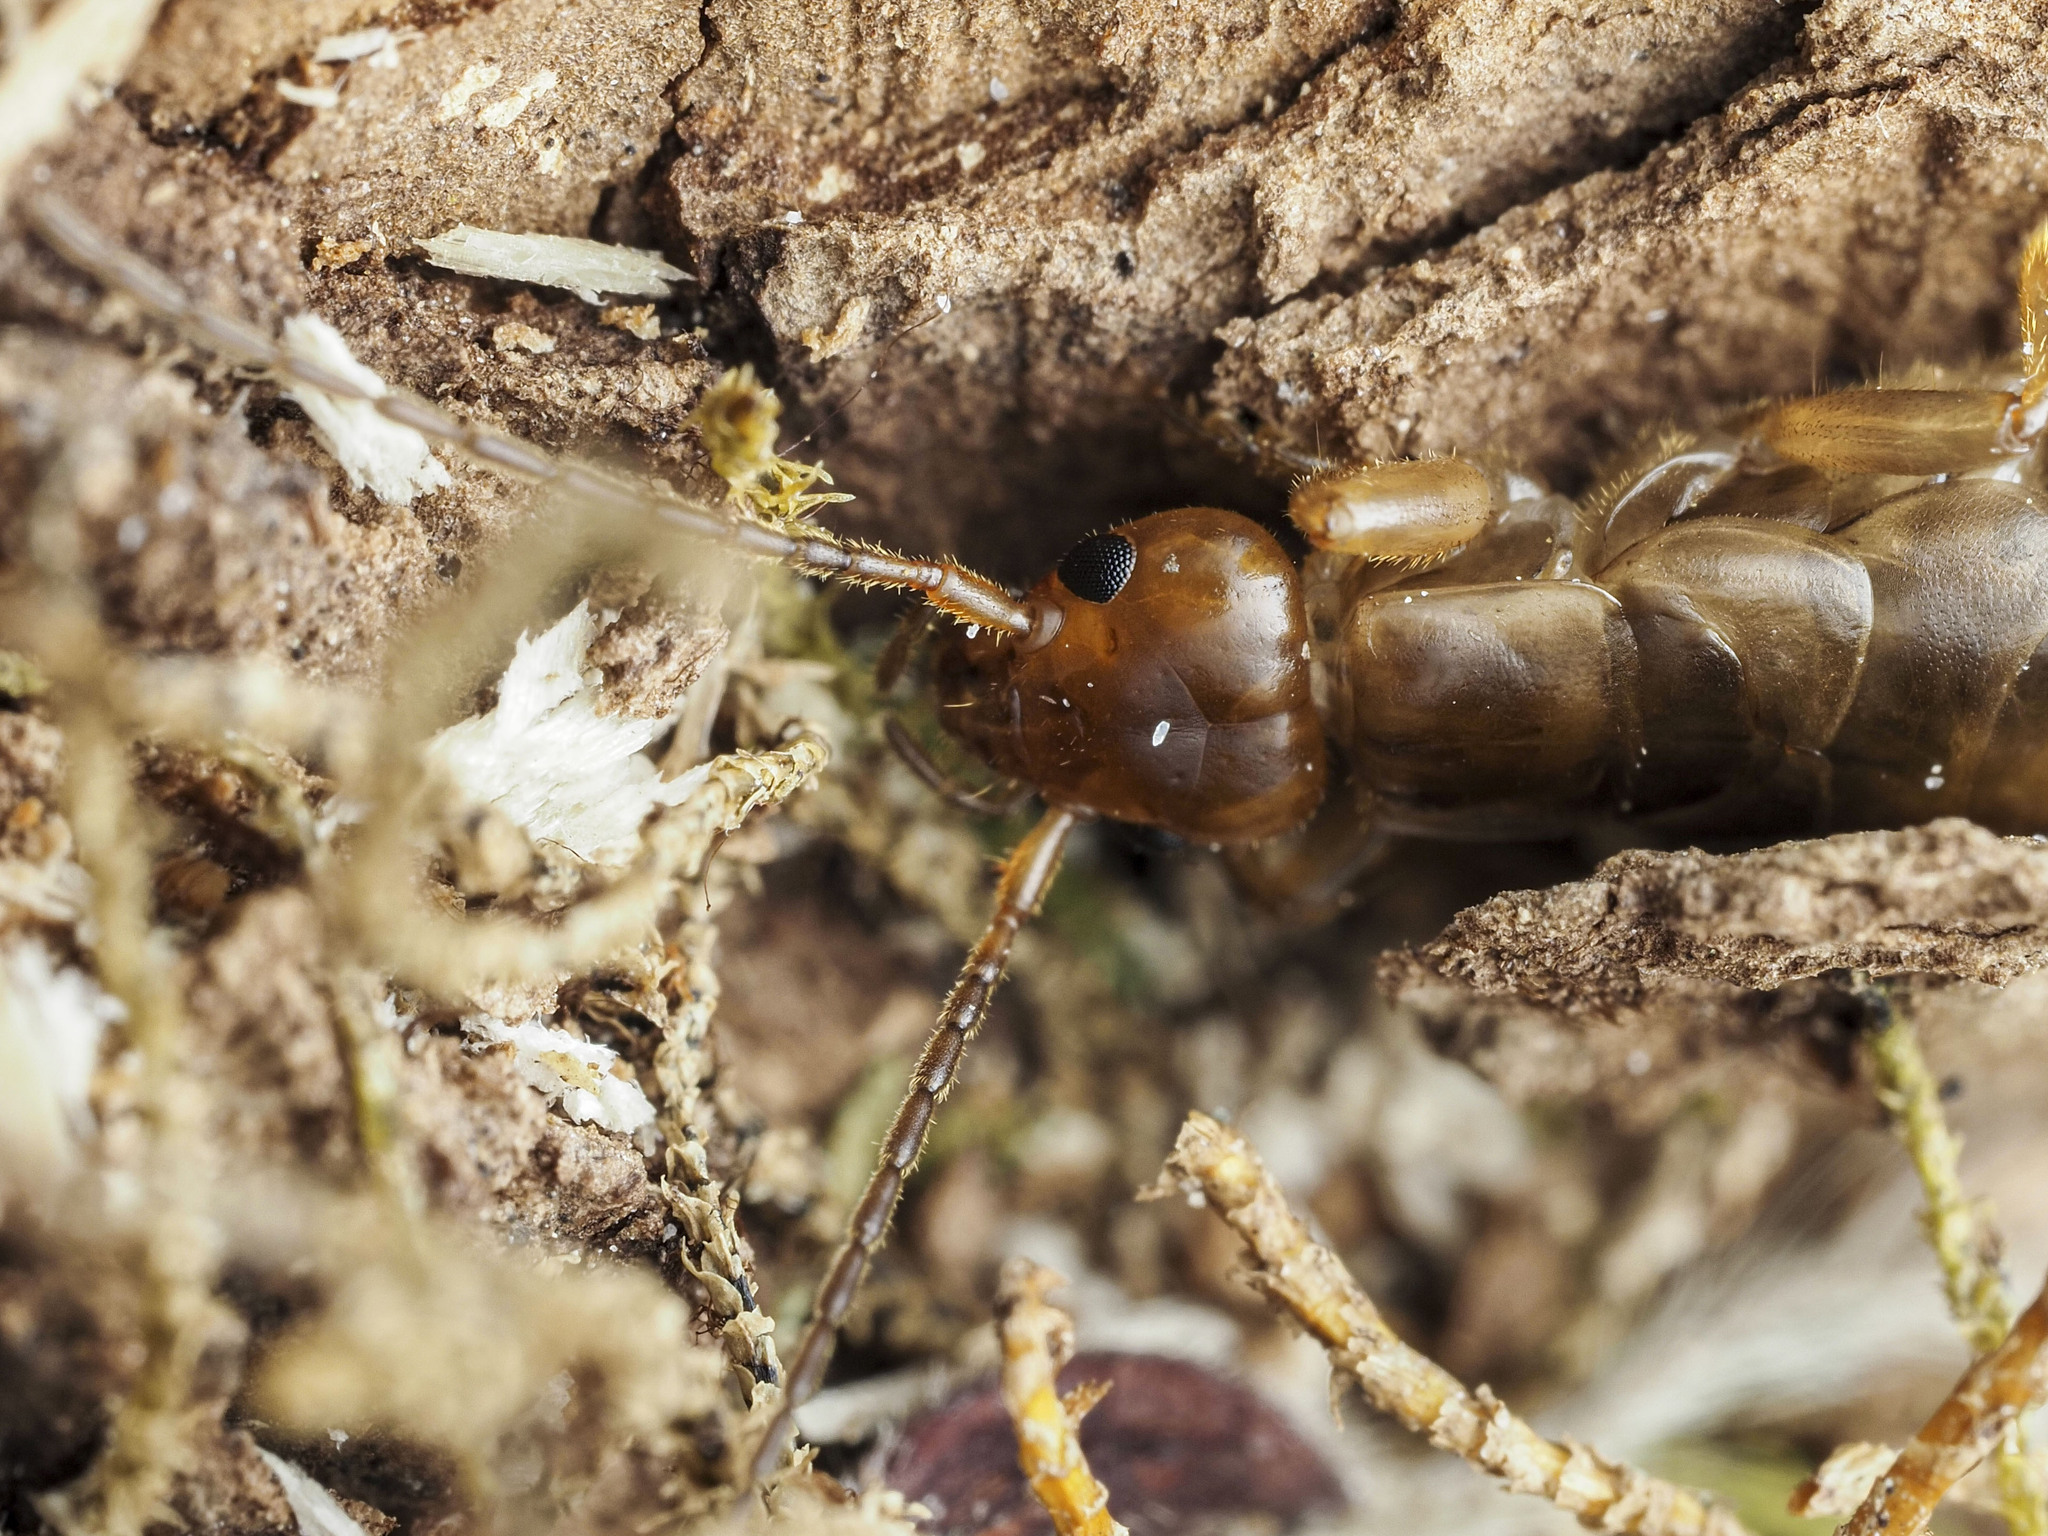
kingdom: Animalia
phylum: Arthropoda
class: Insecta
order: Dermaptera
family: Forficulidae
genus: Chelidurella
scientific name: Chelidurella acanthopygia
